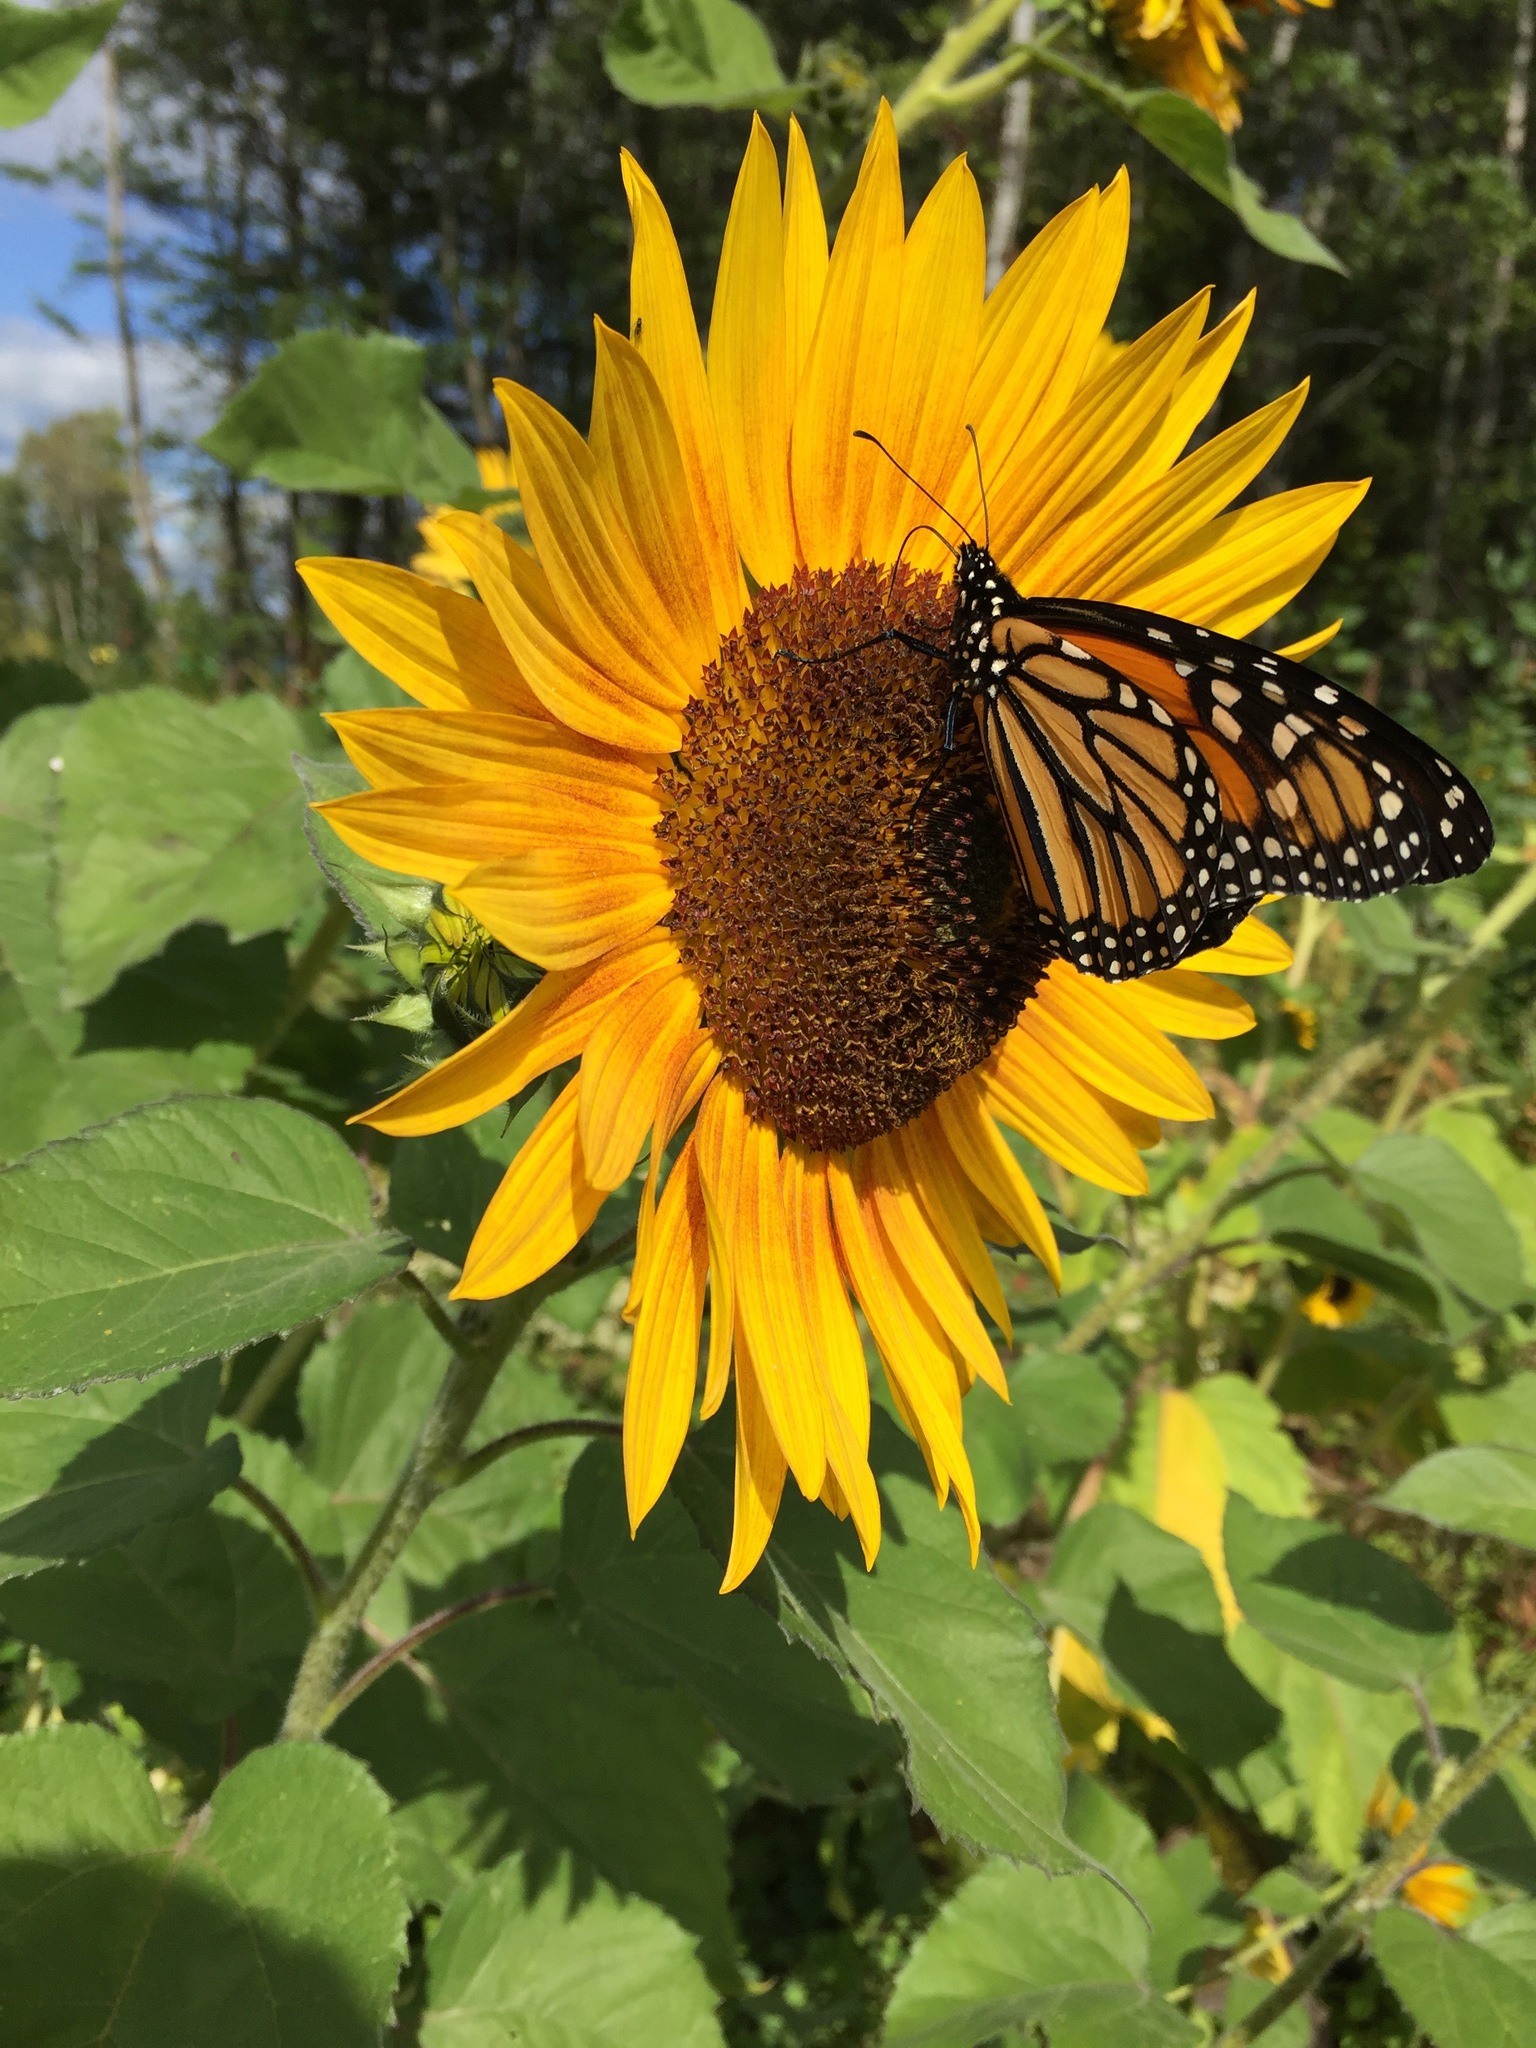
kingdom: Animalia
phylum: Arthropoda
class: Insecta
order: Lepidoptera
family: Nymphalidae
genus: Danaus
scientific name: Danaus plexippus
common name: Monarch
